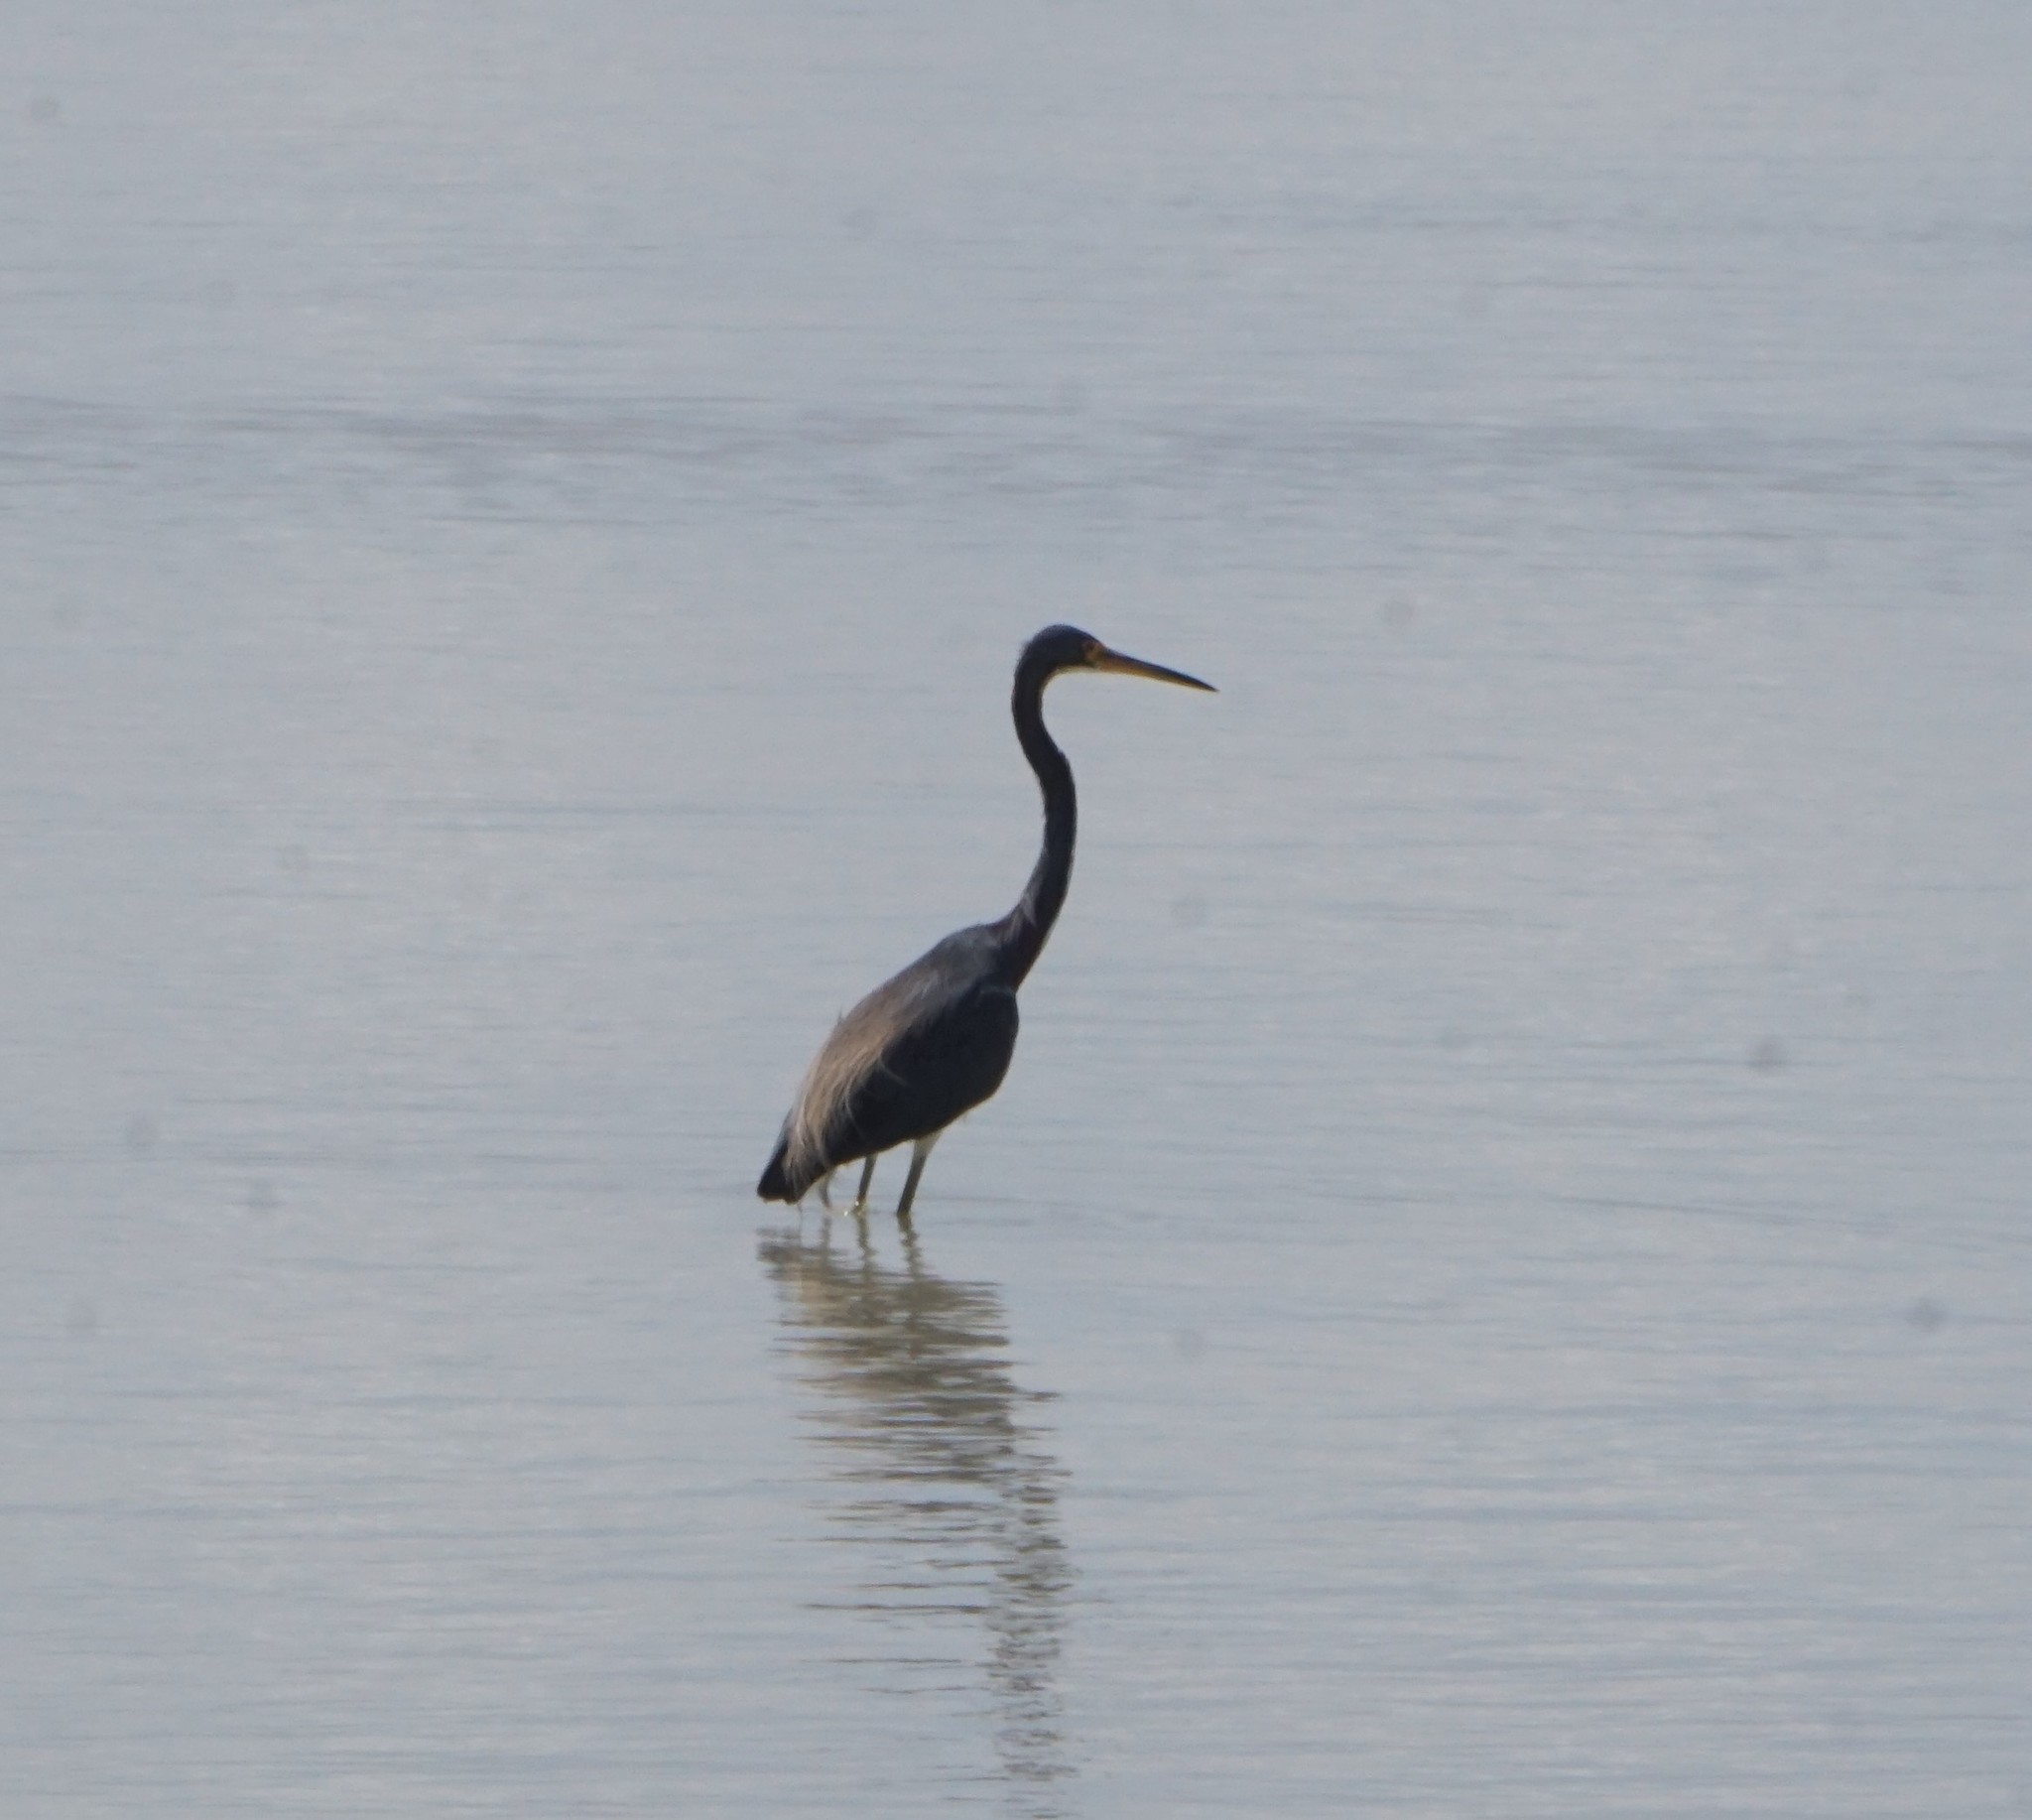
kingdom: Animalia
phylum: Chordata
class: Aves
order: Pelecaniformes
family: Ardeidae
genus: Egretta
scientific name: Egretta tricolor
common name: Tricolored heron
